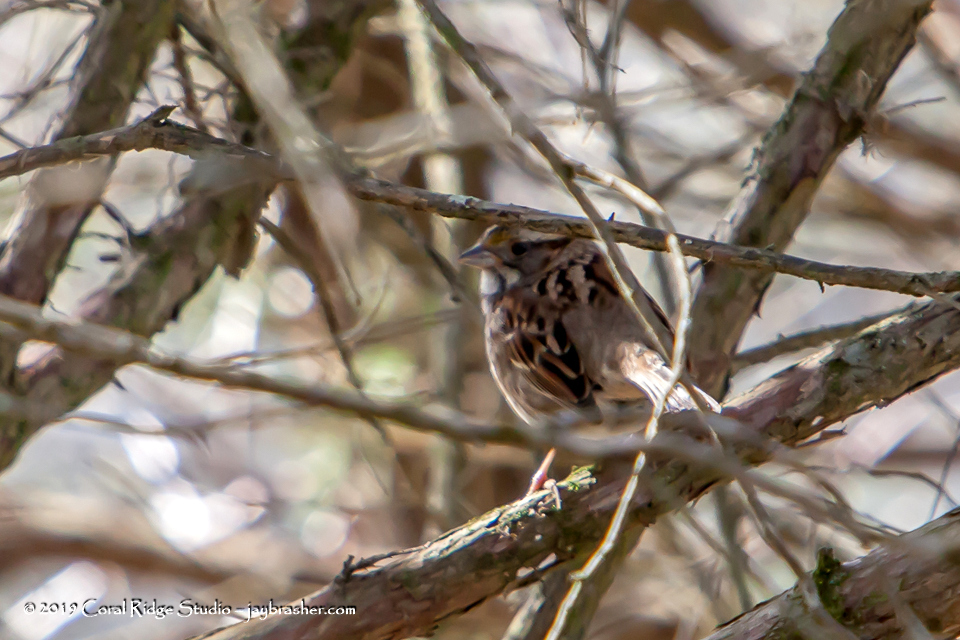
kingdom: Animalia
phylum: Chordata
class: Aves
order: Passeriformes
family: Passerellidae
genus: Zonotrichia
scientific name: Zonotrichia albicollis
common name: White-throated sparrow
